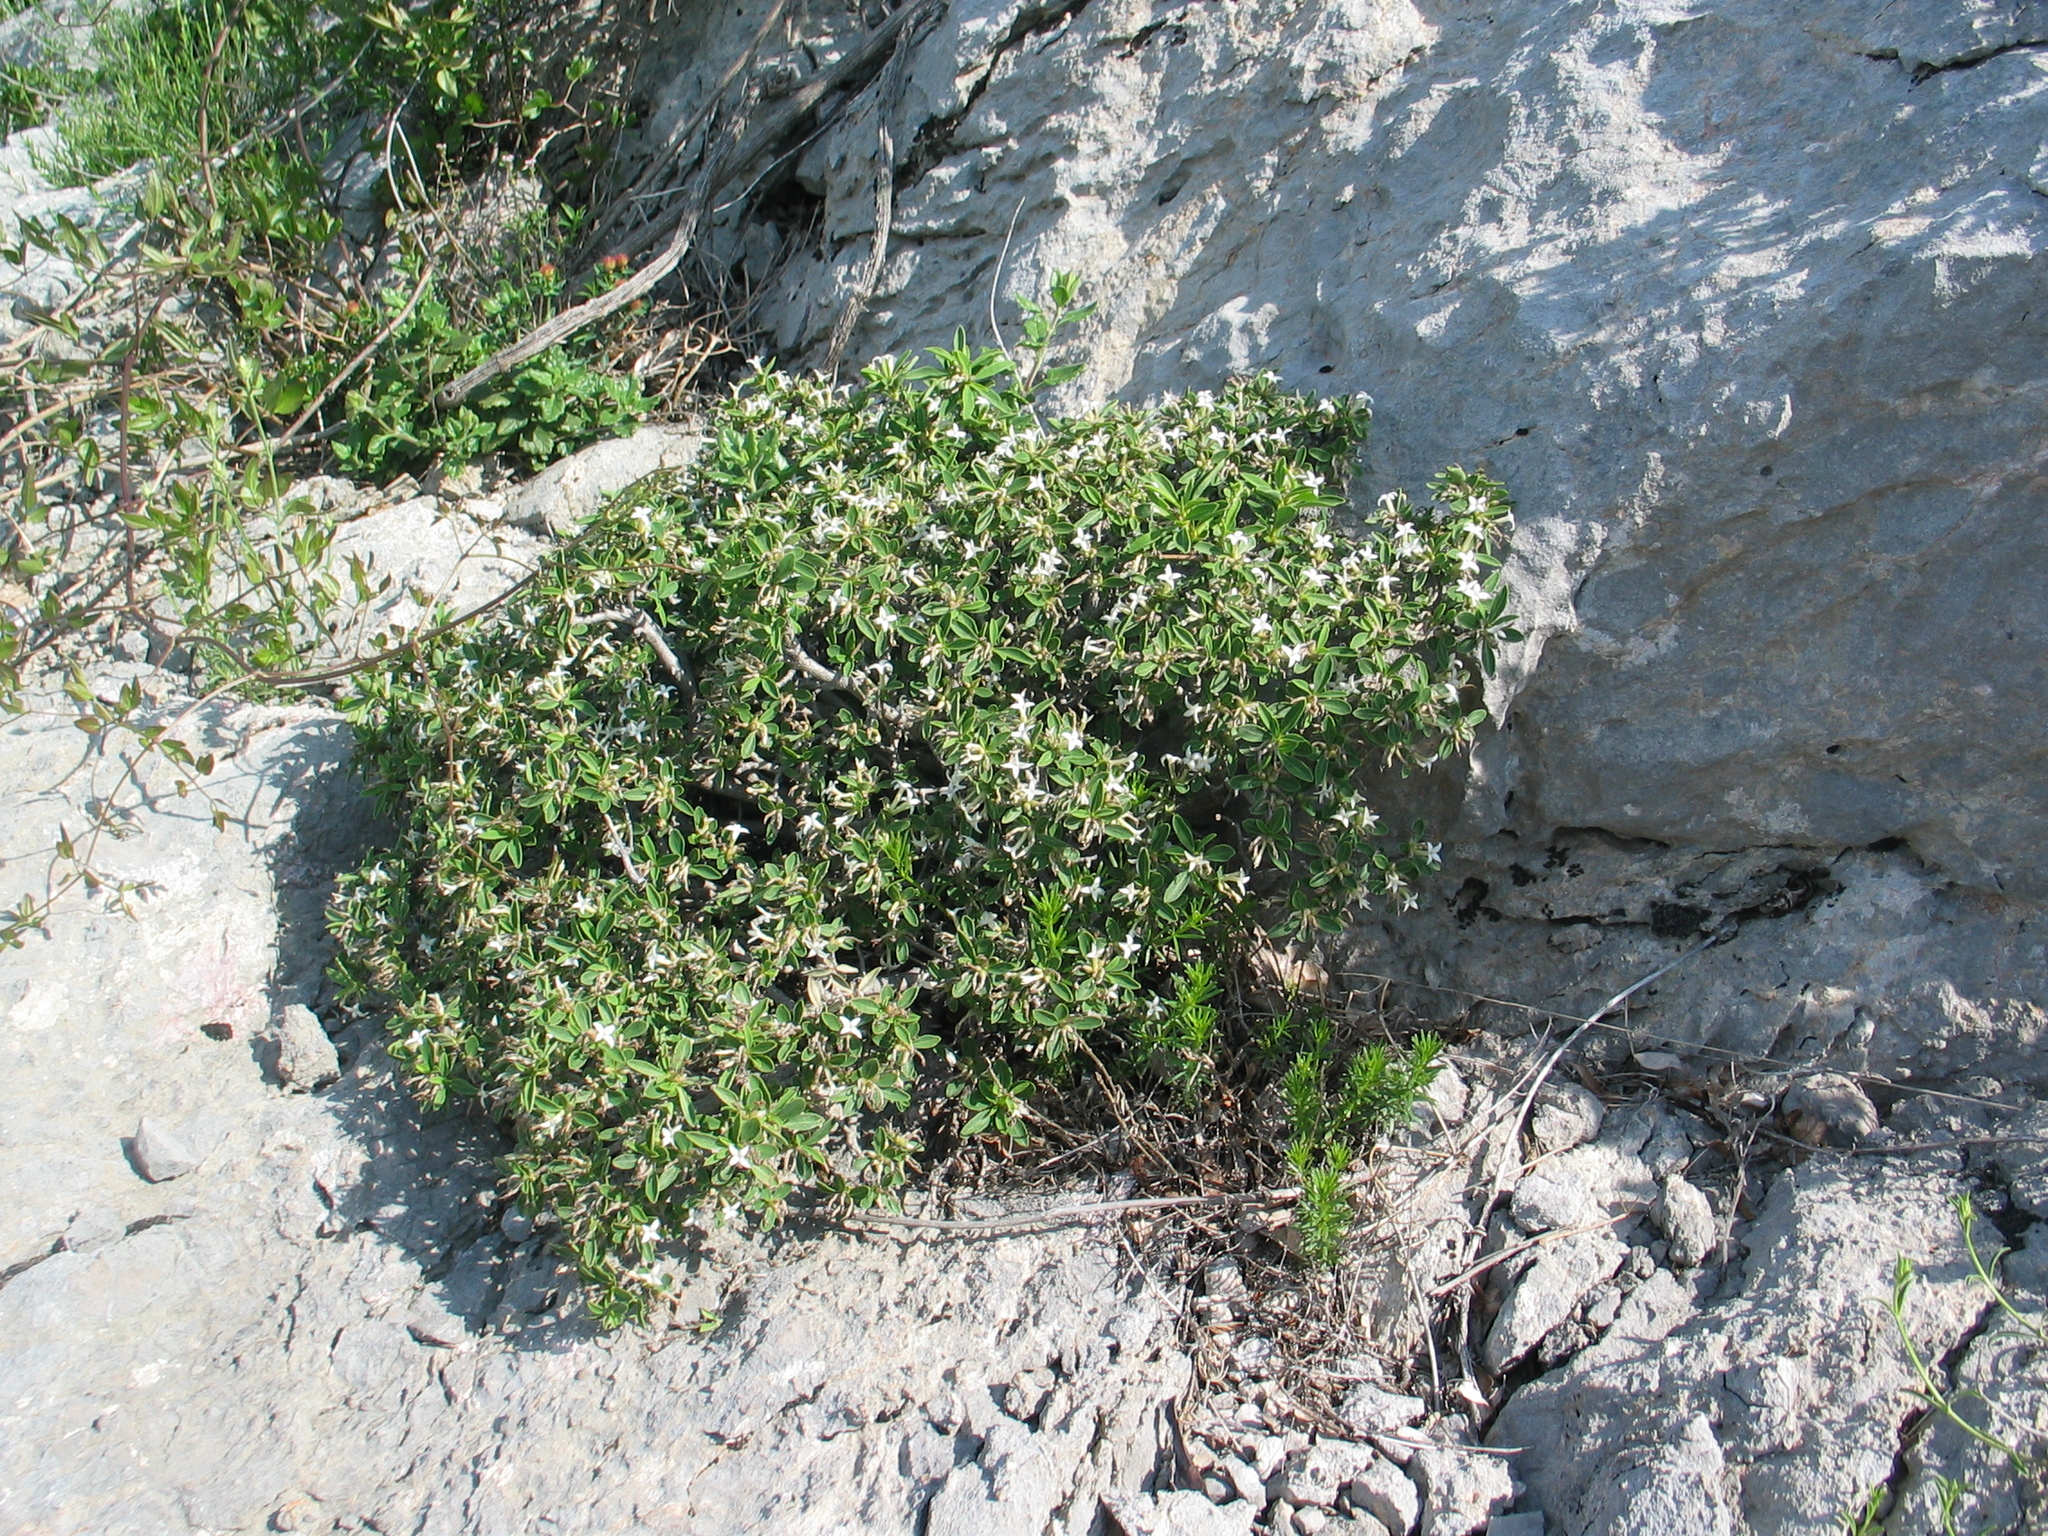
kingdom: Plantae
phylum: Tracheophyta
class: Magnoliopsida
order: Malvales
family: Thymelaeaceae
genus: Daphne
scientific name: Daphne alpina
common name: Alpine daphne
